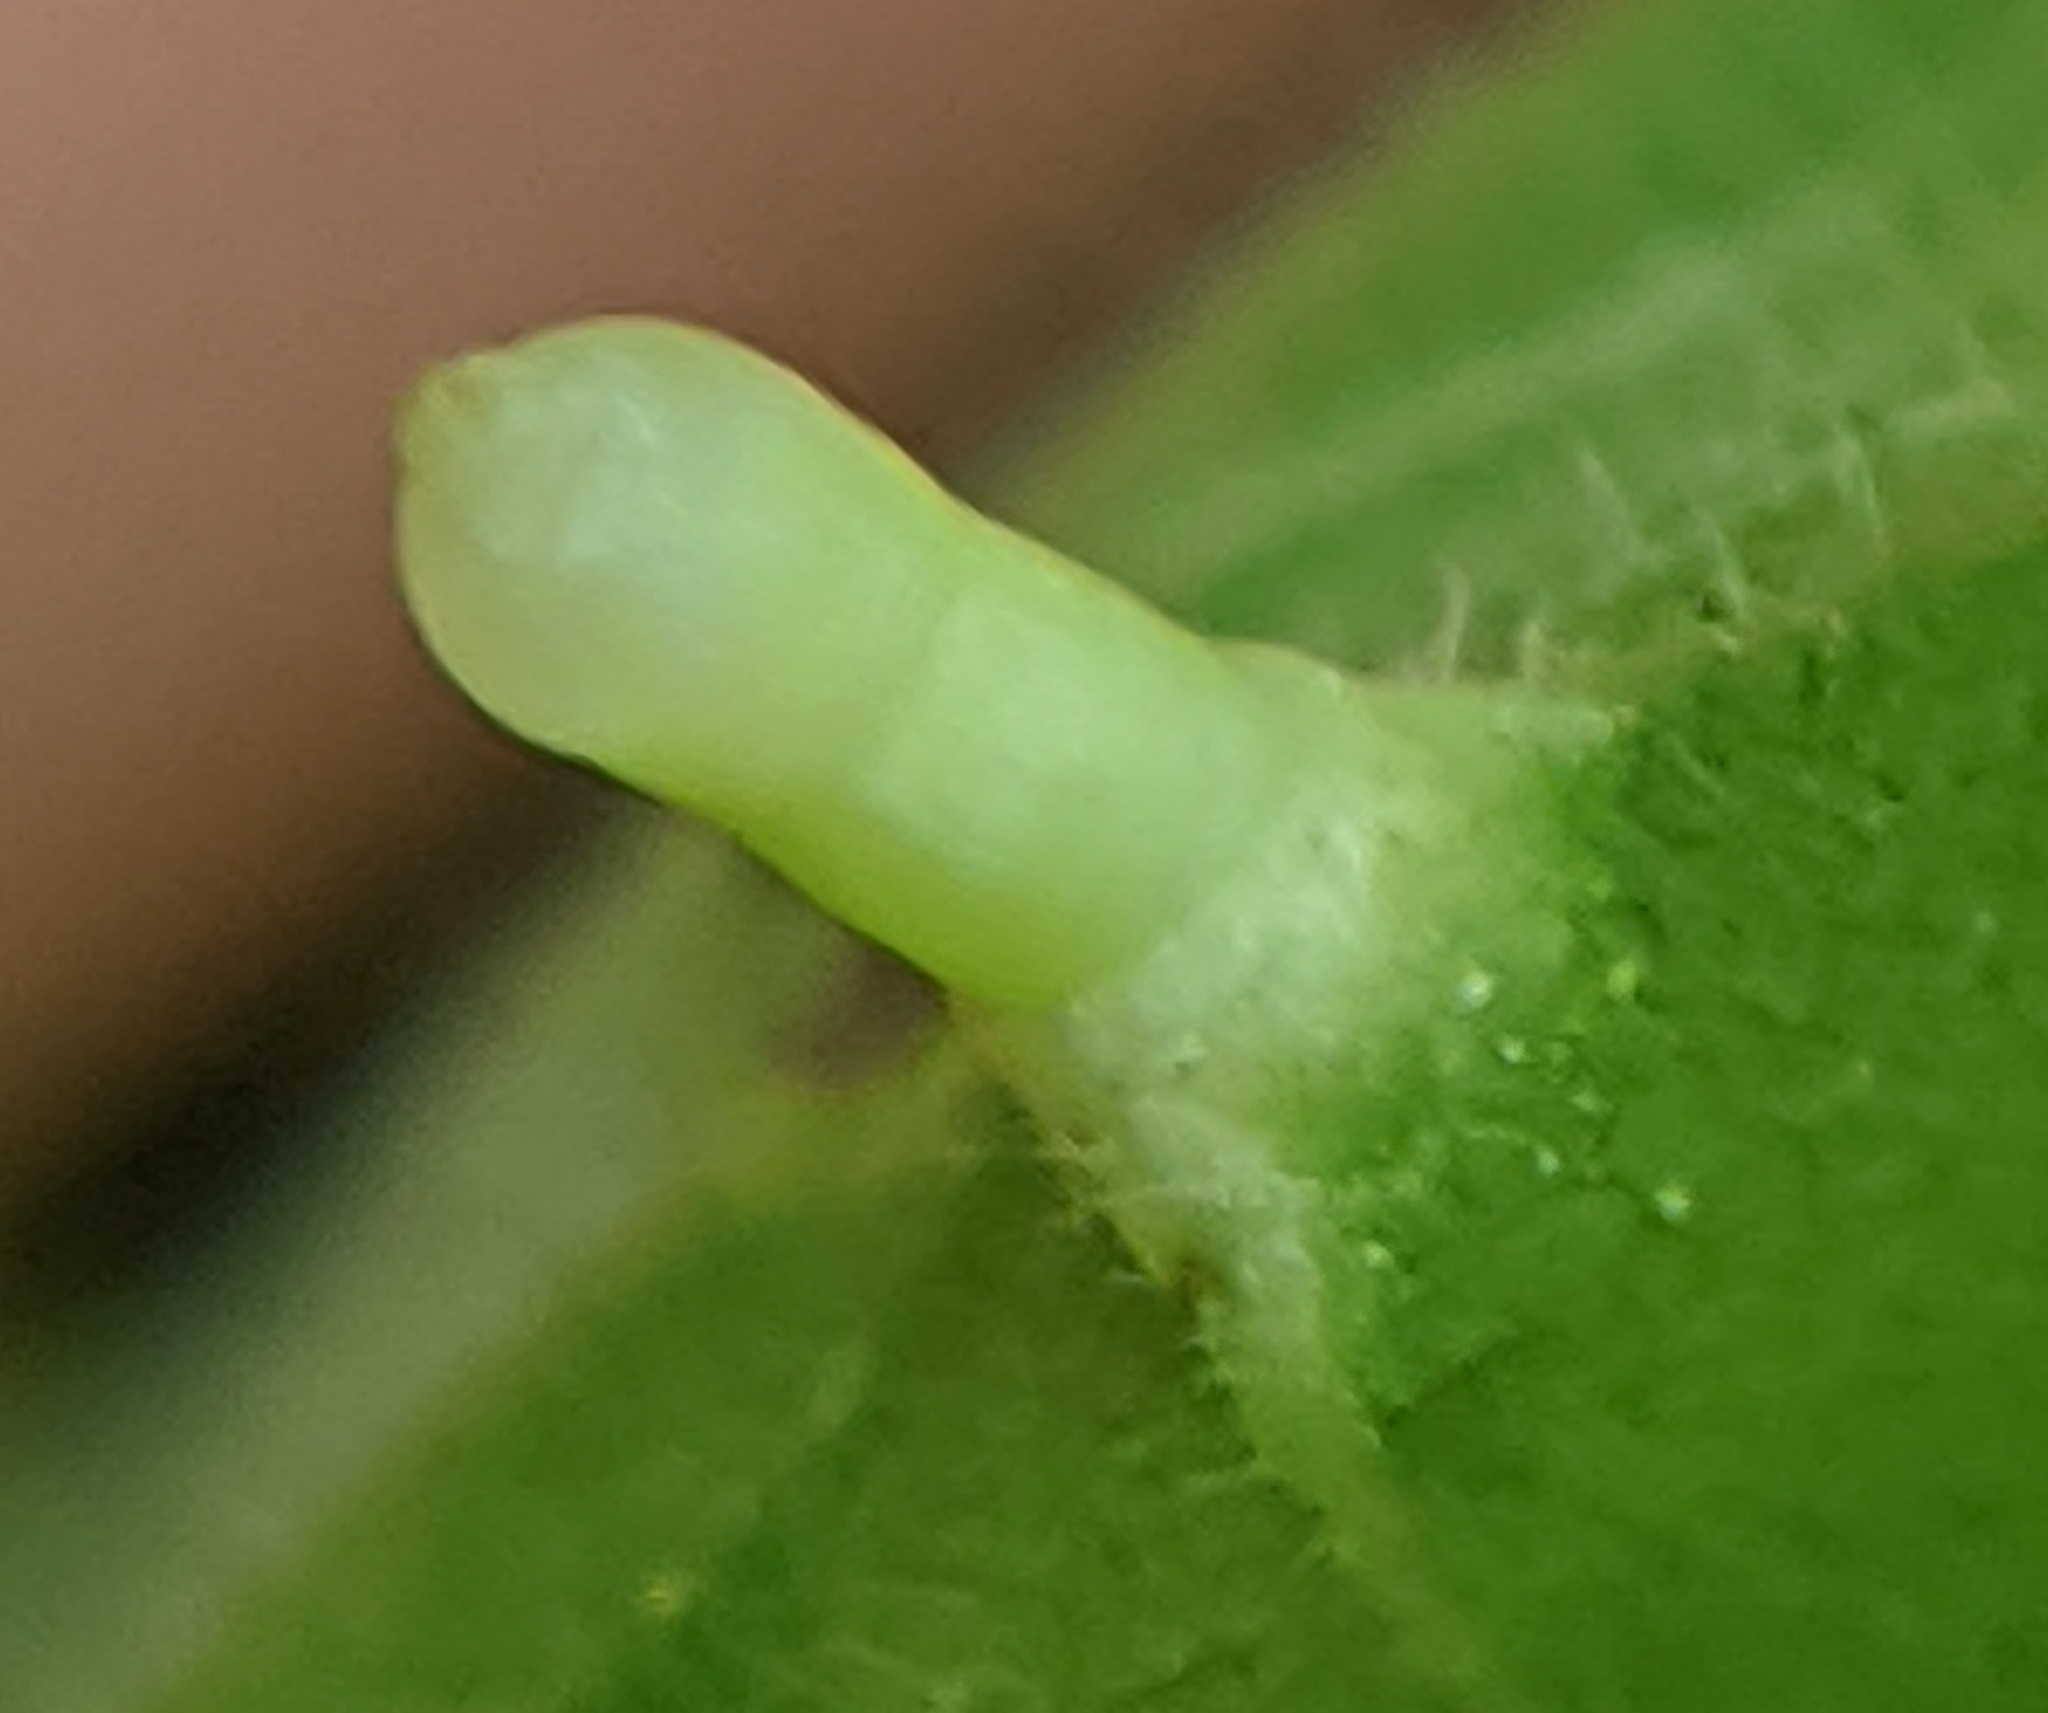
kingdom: Animalia
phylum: Arthropoda
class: Insecta
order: Diptera
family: Cecidomyiidae
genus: Caryomyia
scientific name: Caryomyia tubicola
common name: Hickory bullet gall midge
